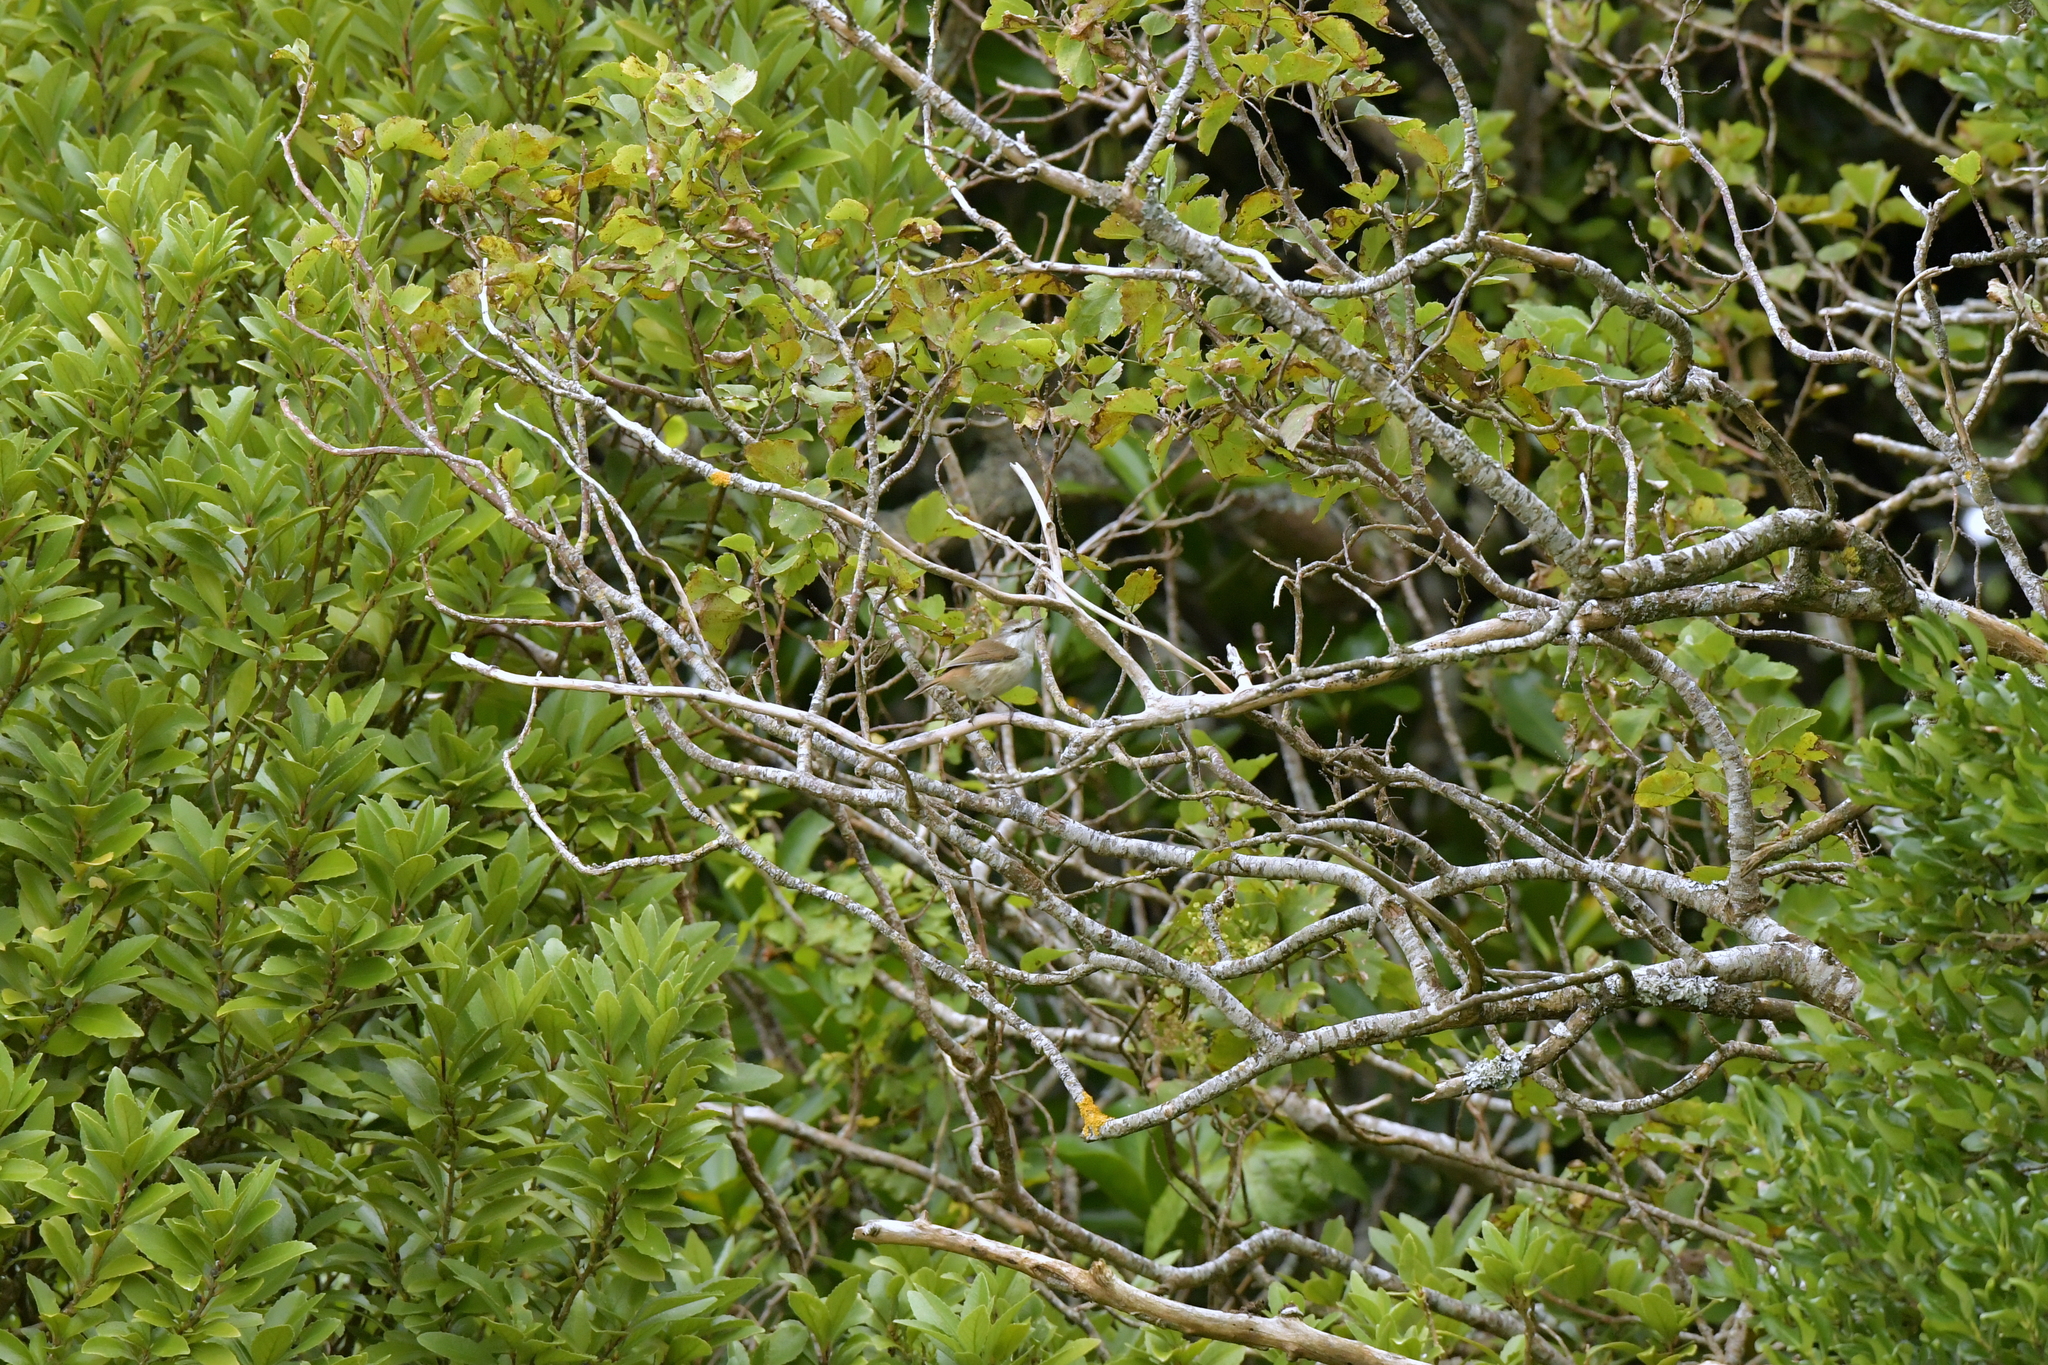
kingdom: Animalia
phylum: Chordata
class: Aves
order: Passeriformes
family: Acanthizidae
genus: Gerygone
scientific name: Gerygone albofrontata
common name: Chatham gerygone
